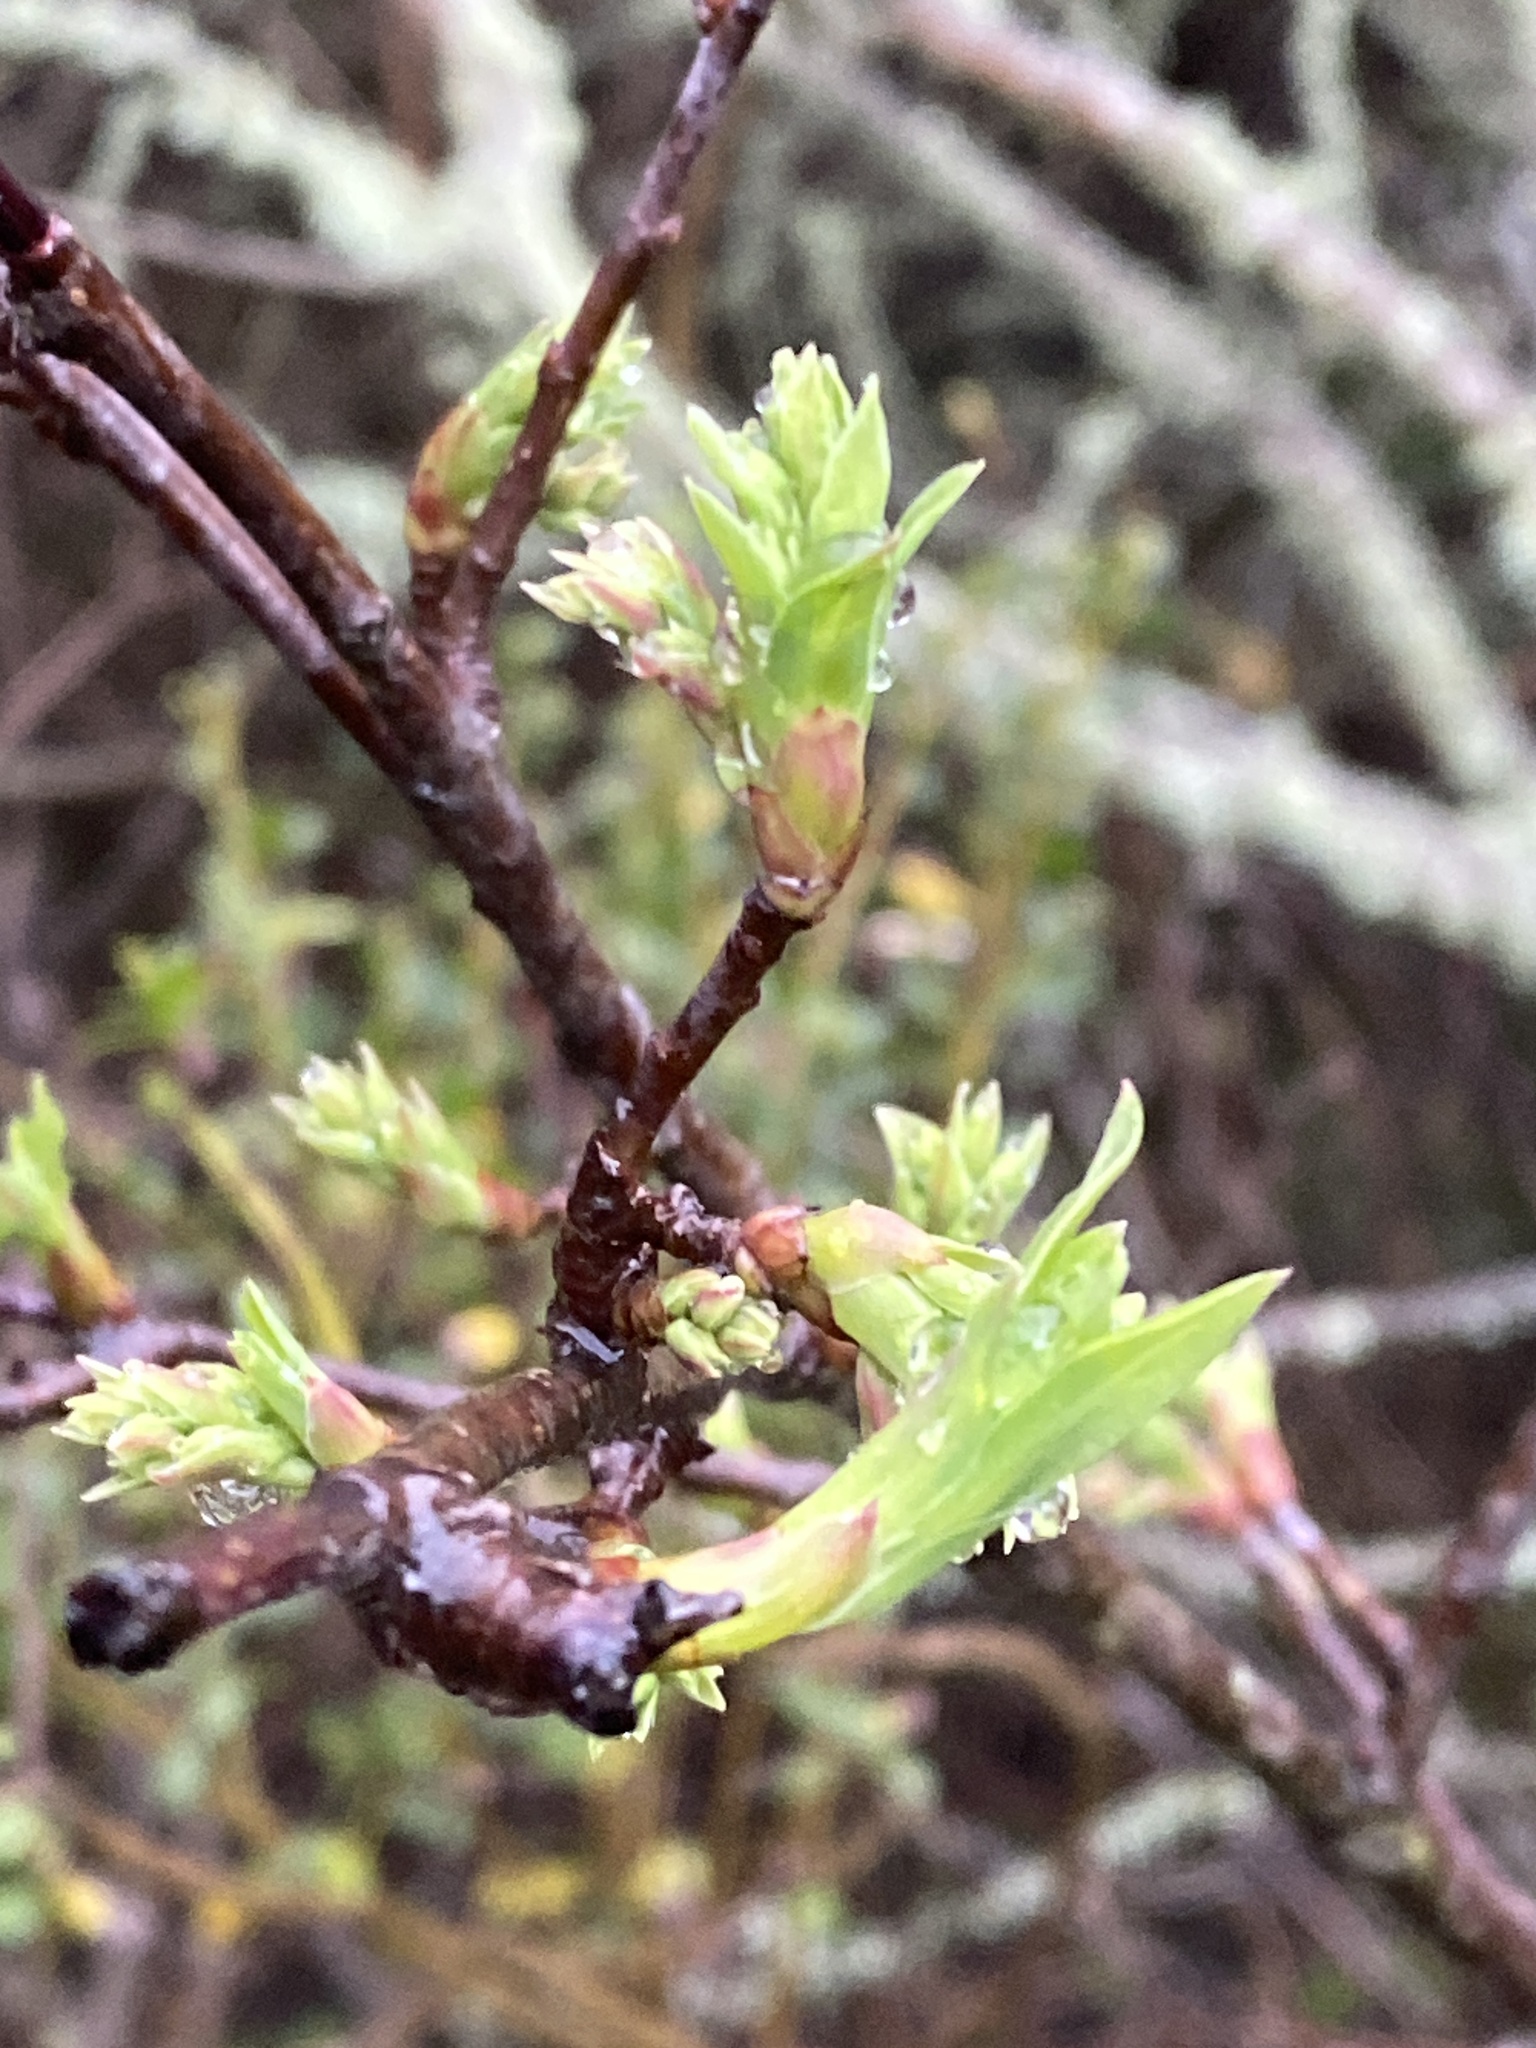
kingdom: Plantae
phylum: Tracheophyta
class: Magnoliopsida
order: Rosales
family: Rosaceae
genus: Oemleria
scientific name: Oemleria cerasiformis
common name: Osoberry
